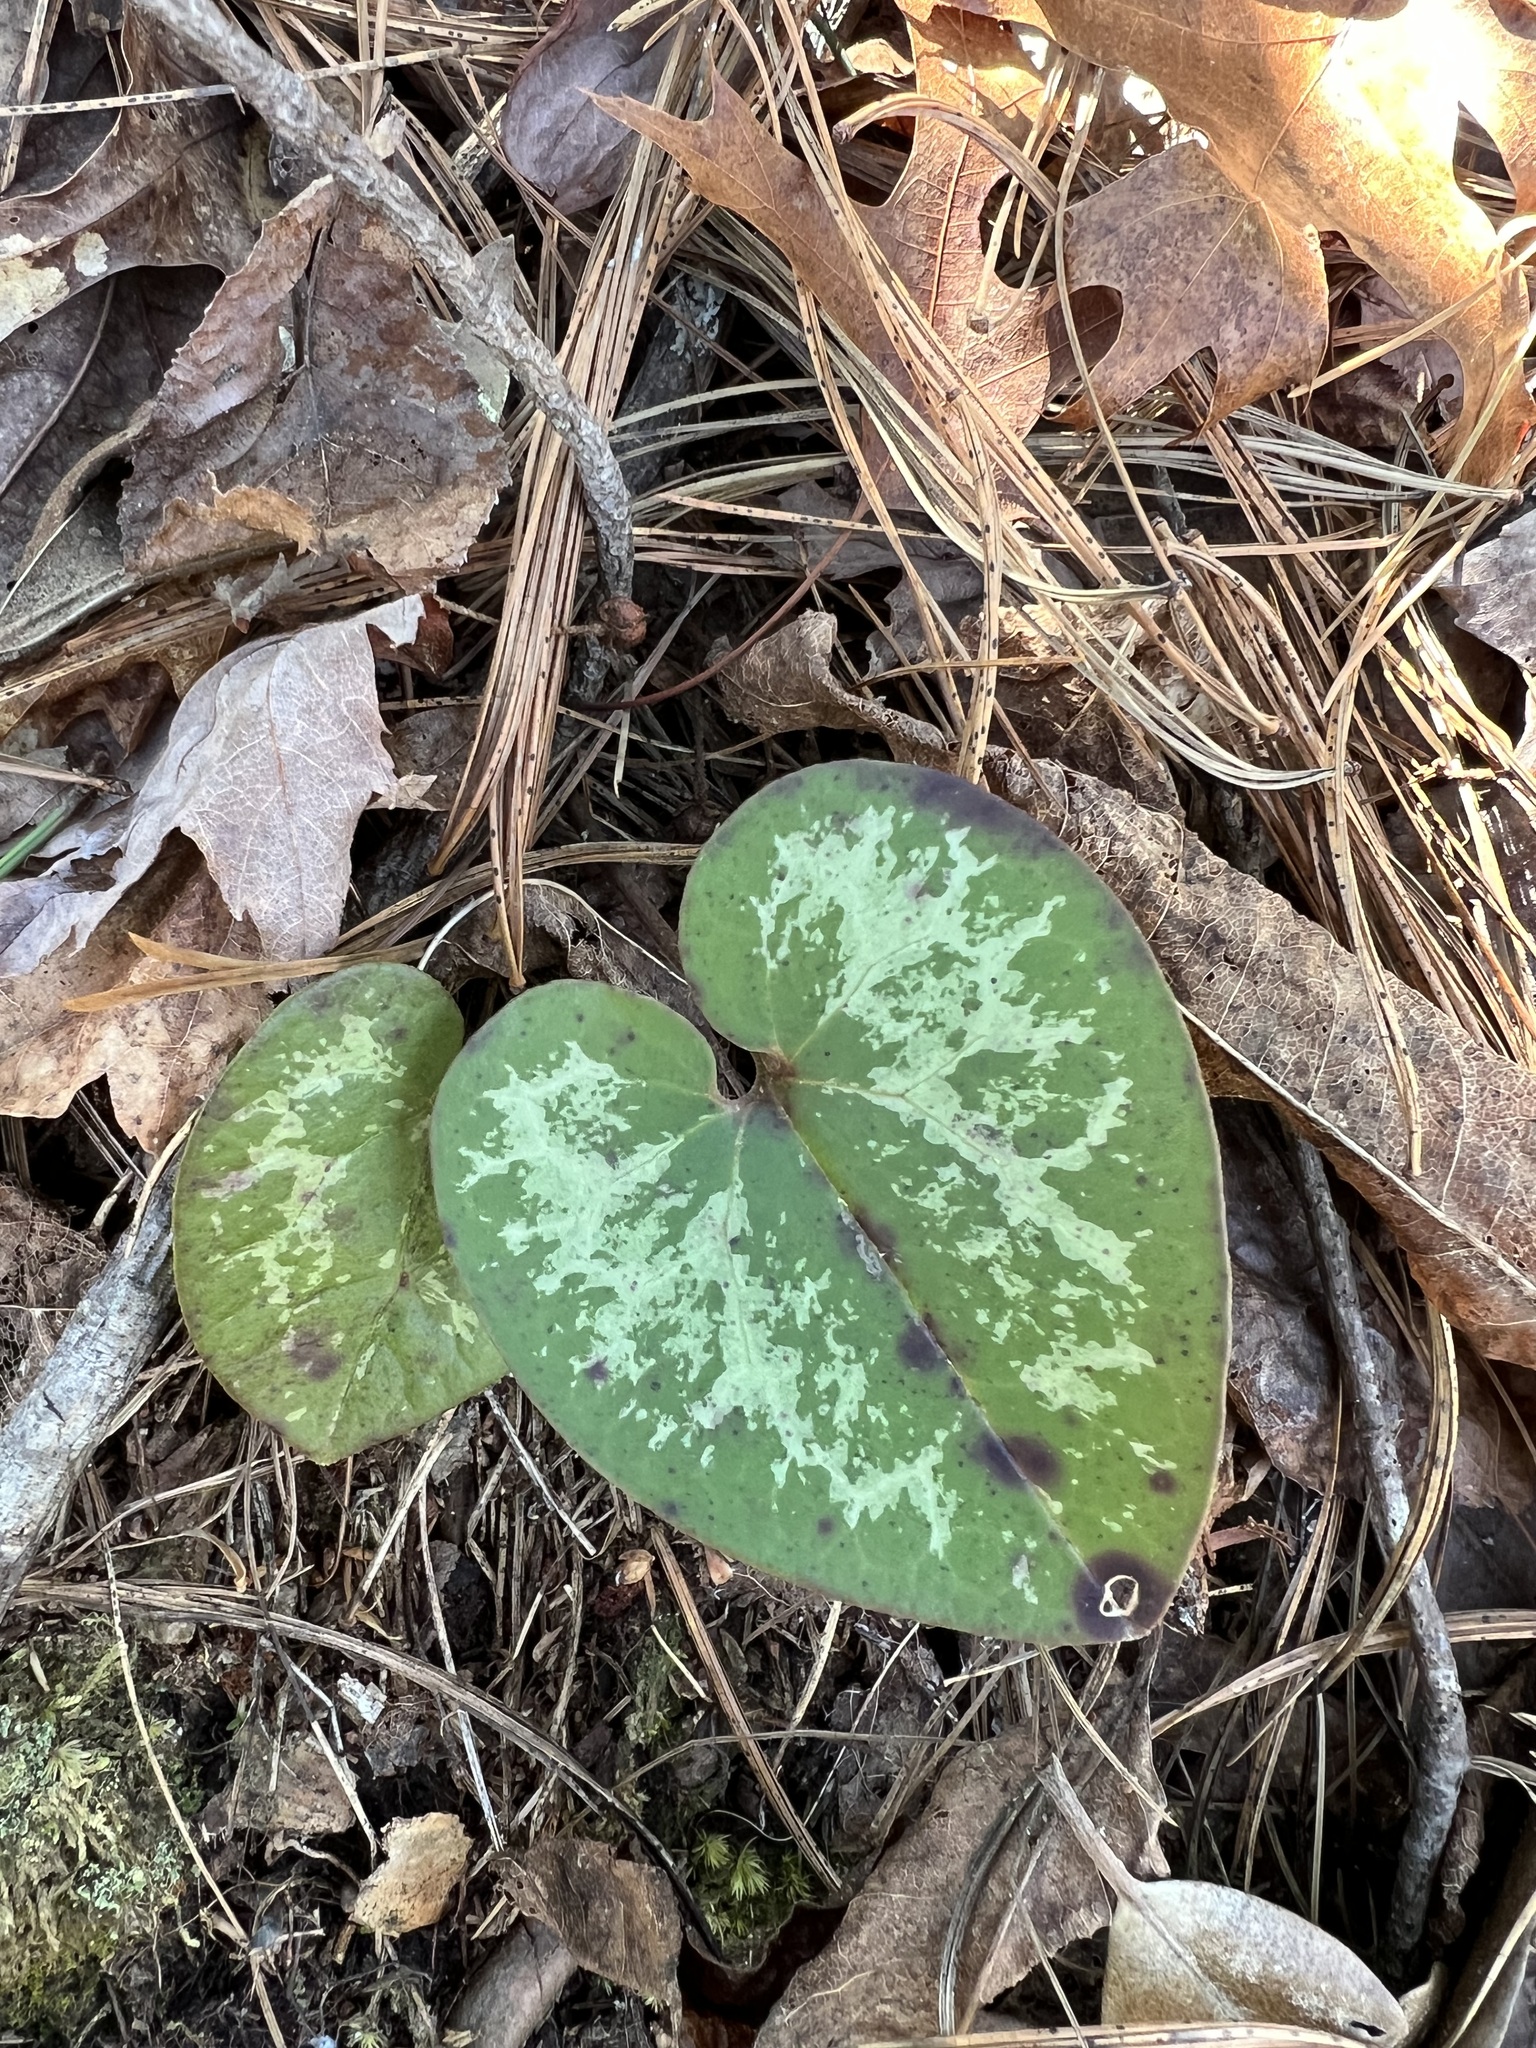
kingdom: Plantae
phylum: Tracheophyta
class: Magnoliopsida
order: Piperales
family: Aristolochiaceae
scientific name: Aristolochiaceae
